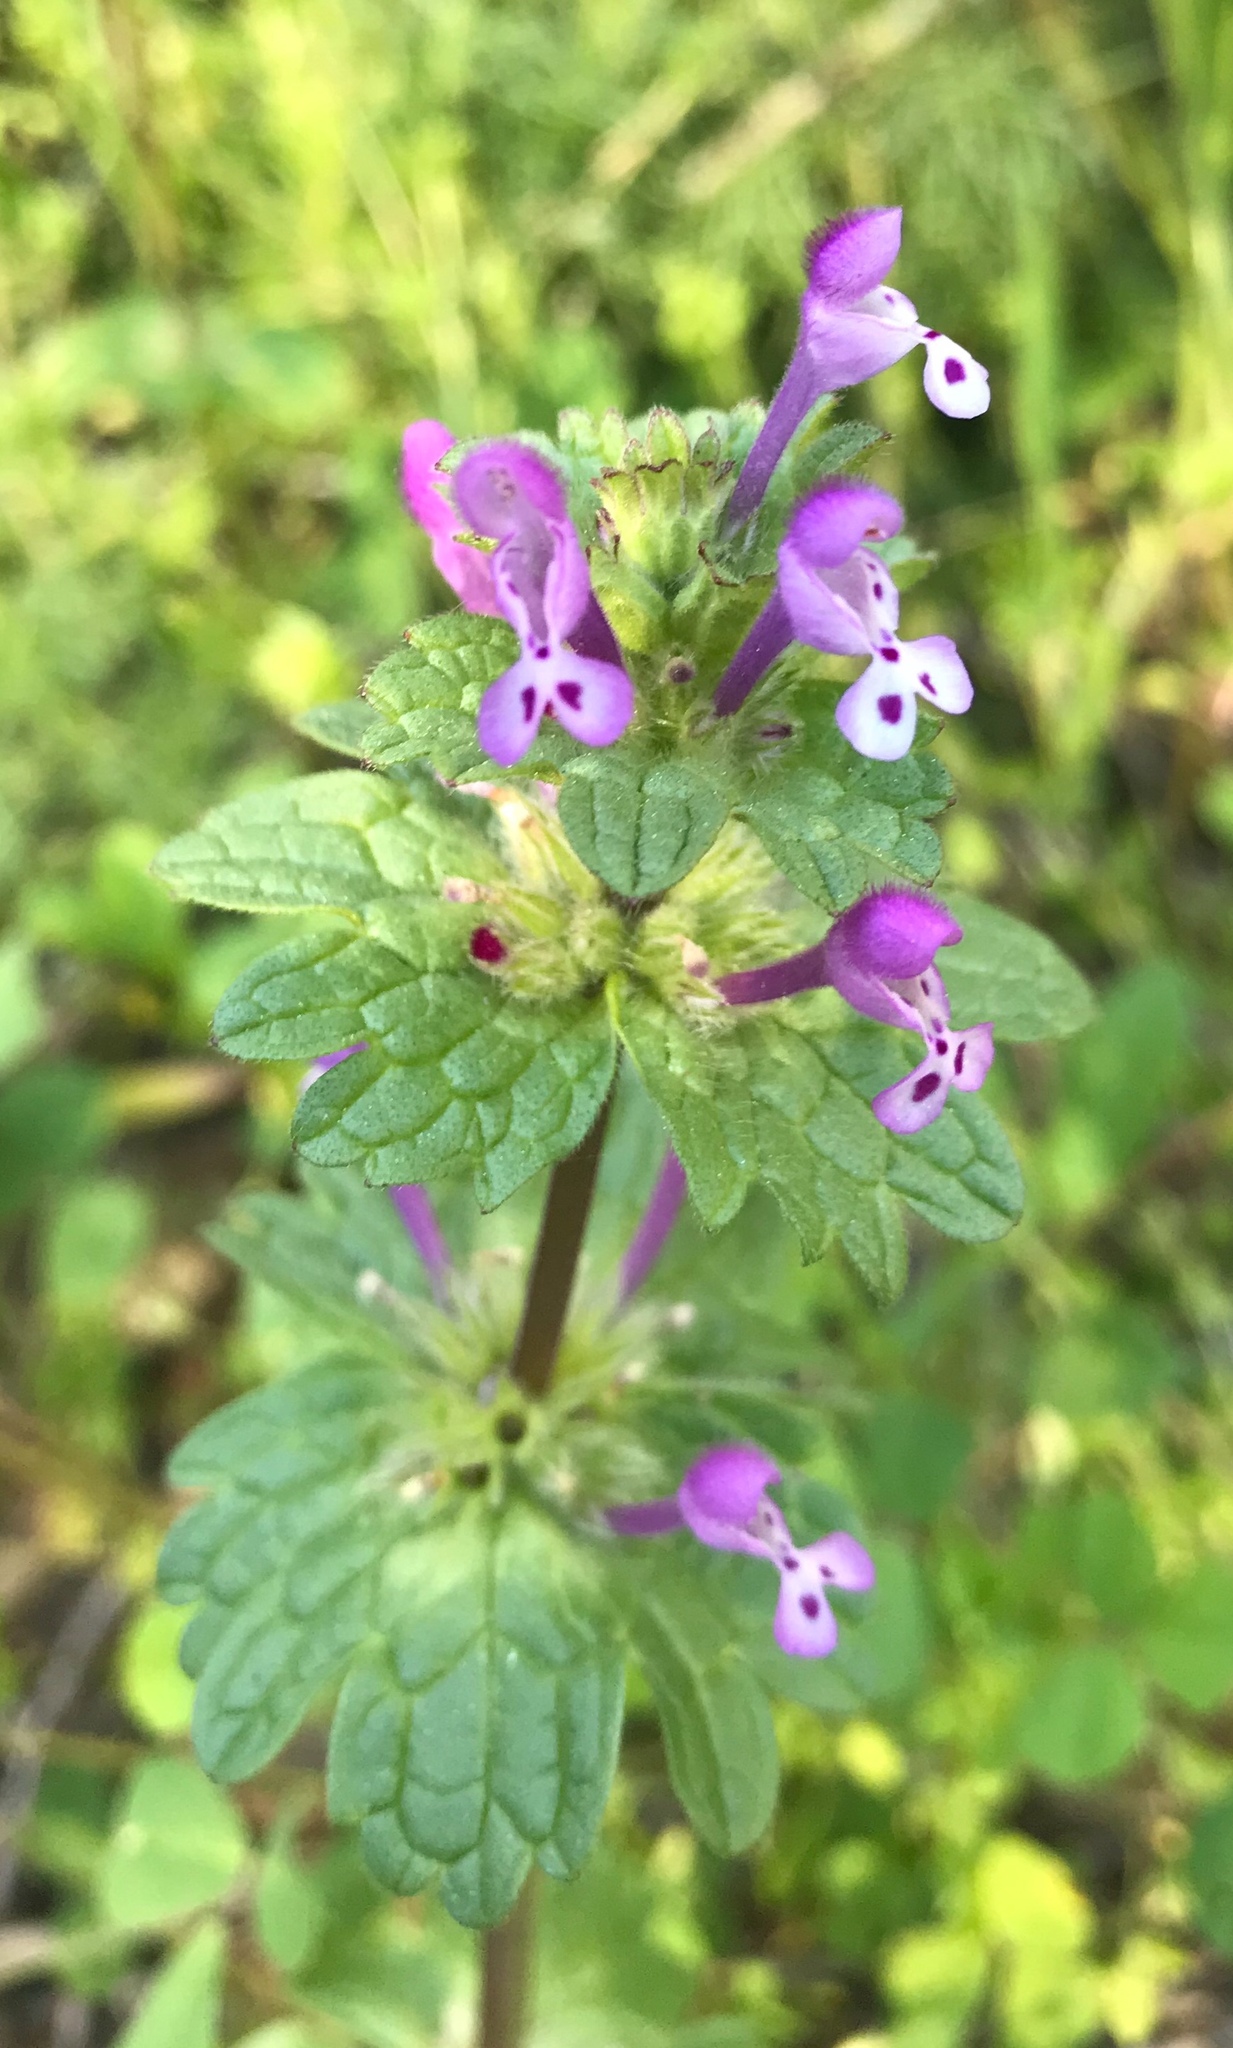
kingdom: Plantae
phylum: Tracheophyta
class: Magnoliopsida
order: Lamiales
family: Lamiaceae
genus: Lamium
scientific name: Lamium amplexicaule
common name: Henbit dead-nettle
